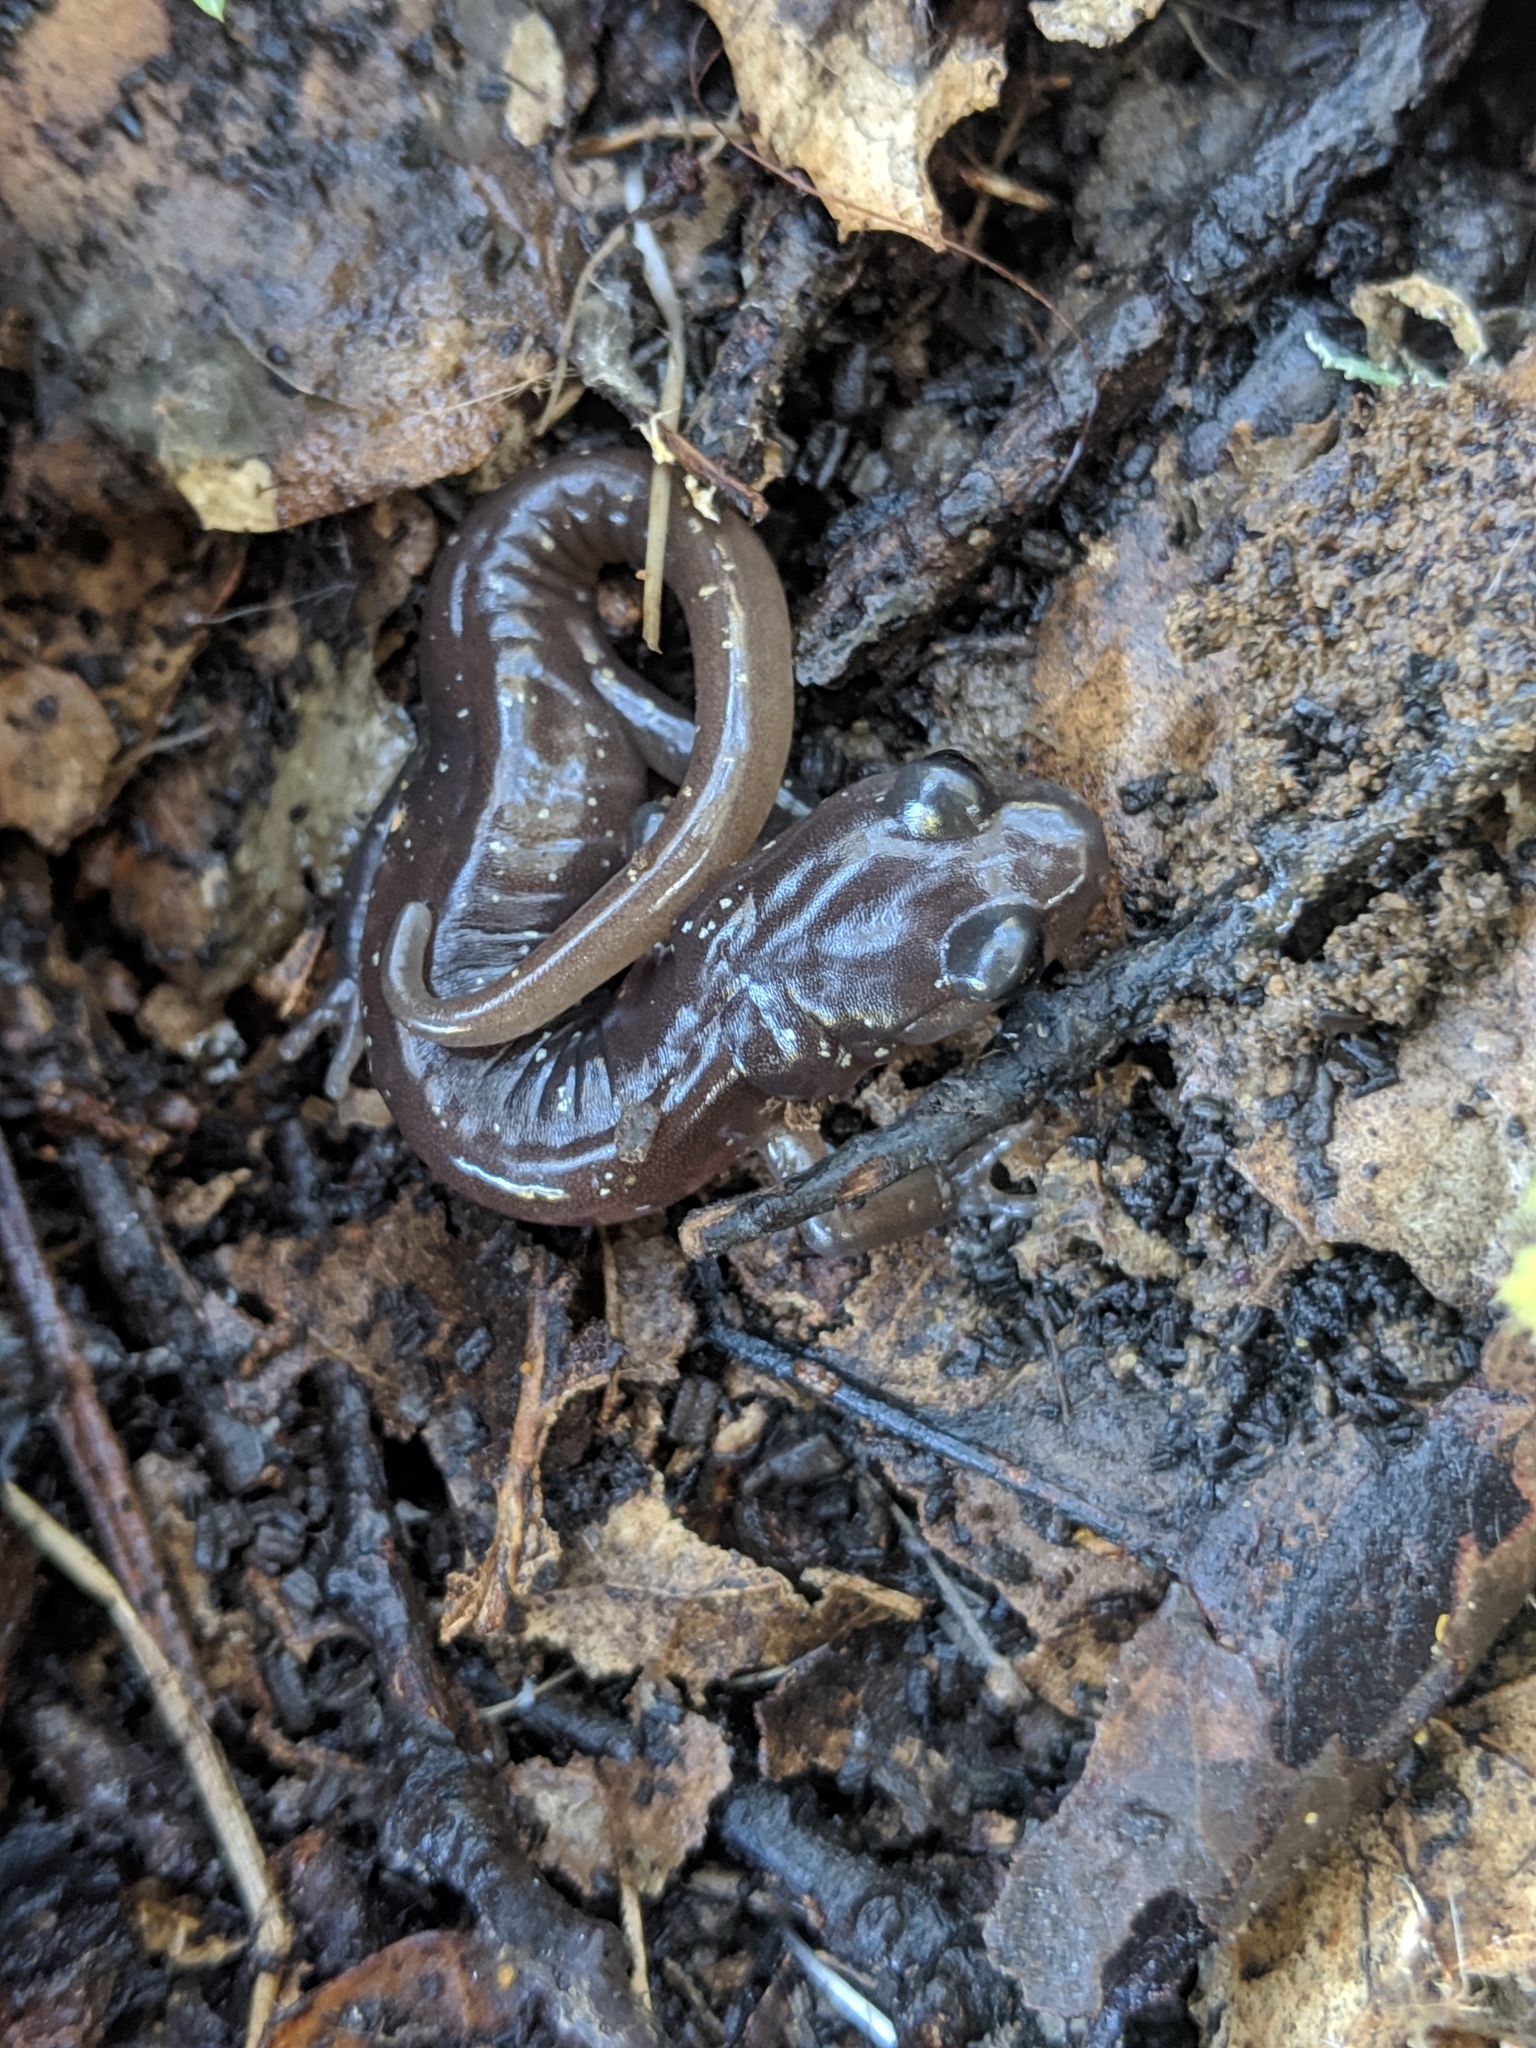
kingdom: Animalia
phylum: Chordata
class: Amphibia
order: Caudata
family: Plethodontidae
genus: Aneides
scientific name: Aneides lugubris
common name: Arboreal salamander
